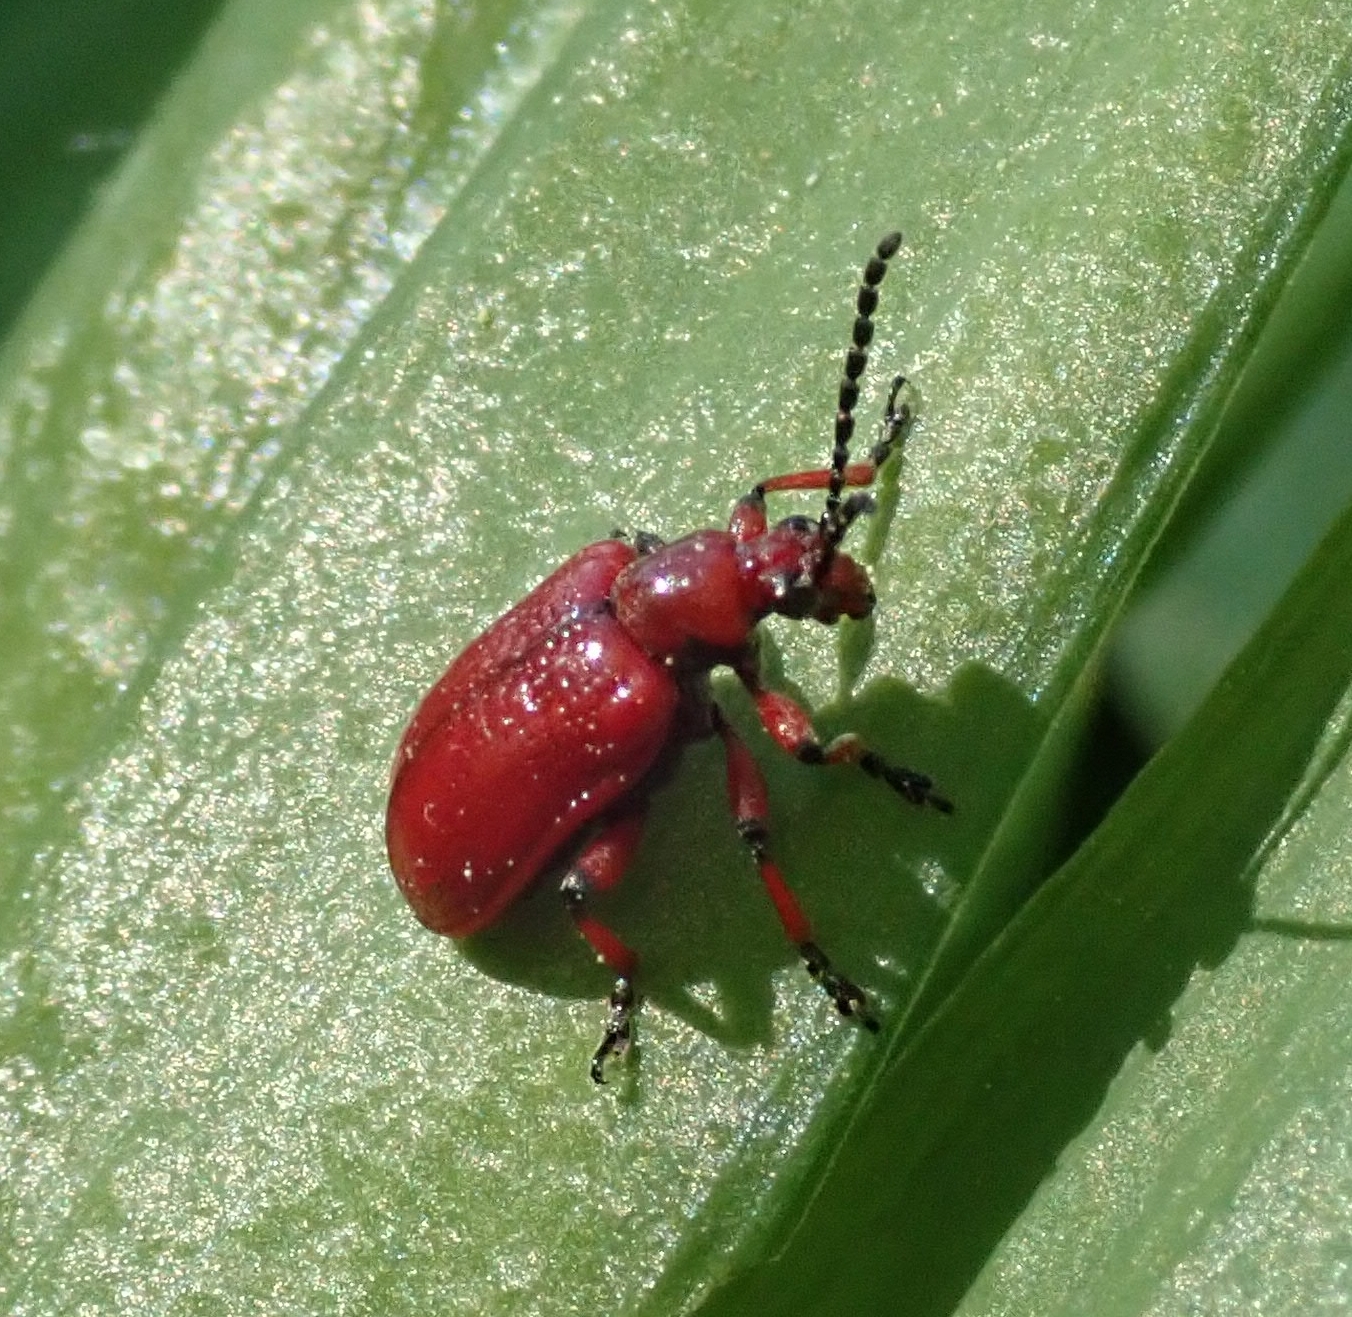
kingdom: Animalia
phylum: Arthropoda
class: Insecta
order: Coleoptera
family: Chrysomelidae
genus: Lilioceris
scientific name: Lilioceris merdigera
